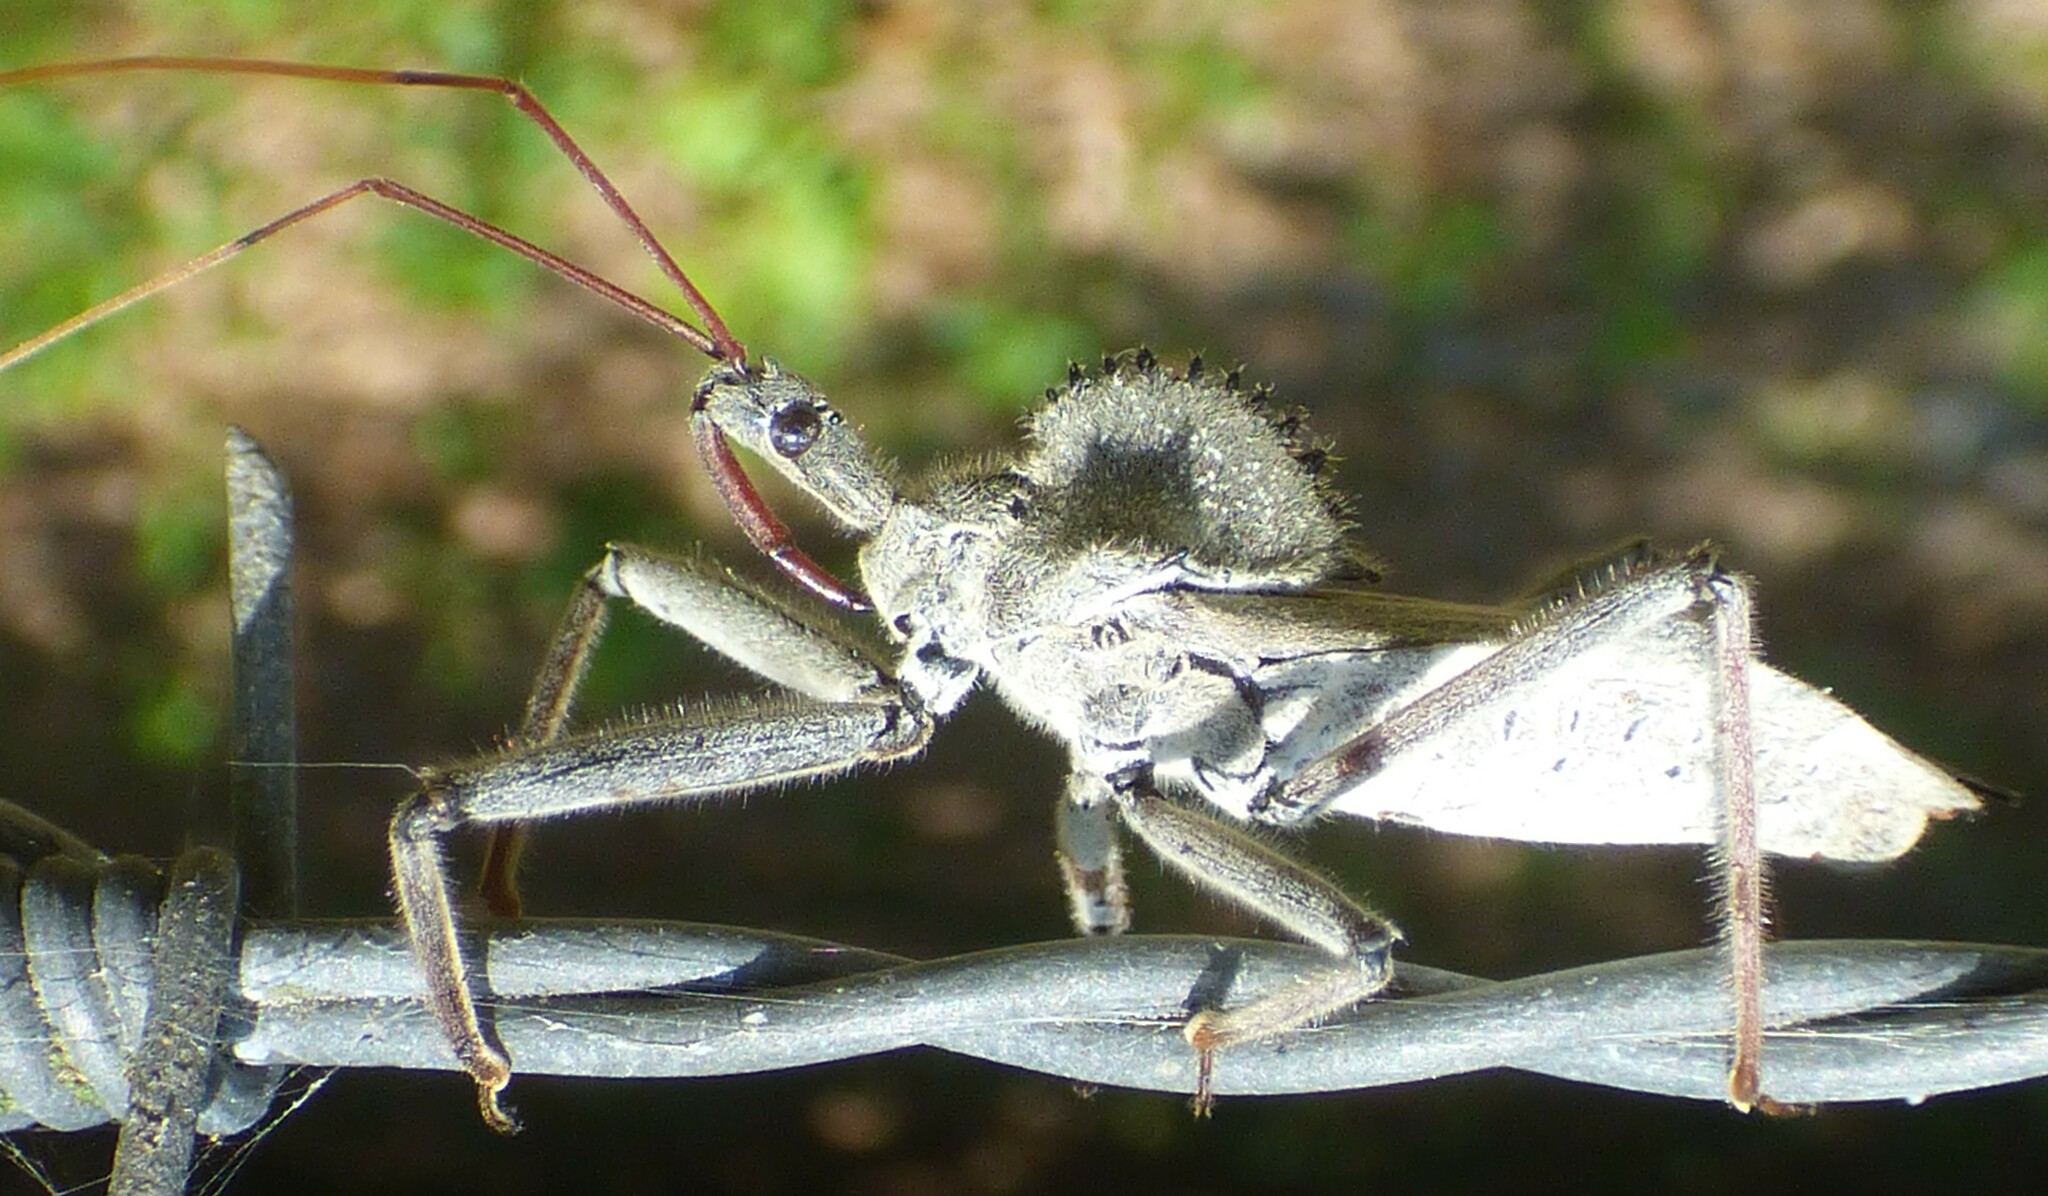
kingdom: Animalia
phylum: Arthropoda
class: Insecta
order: Hemiptera
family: Reduviidae
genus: Arilus
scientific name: Arilus cristatus
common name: North american wheel bug
